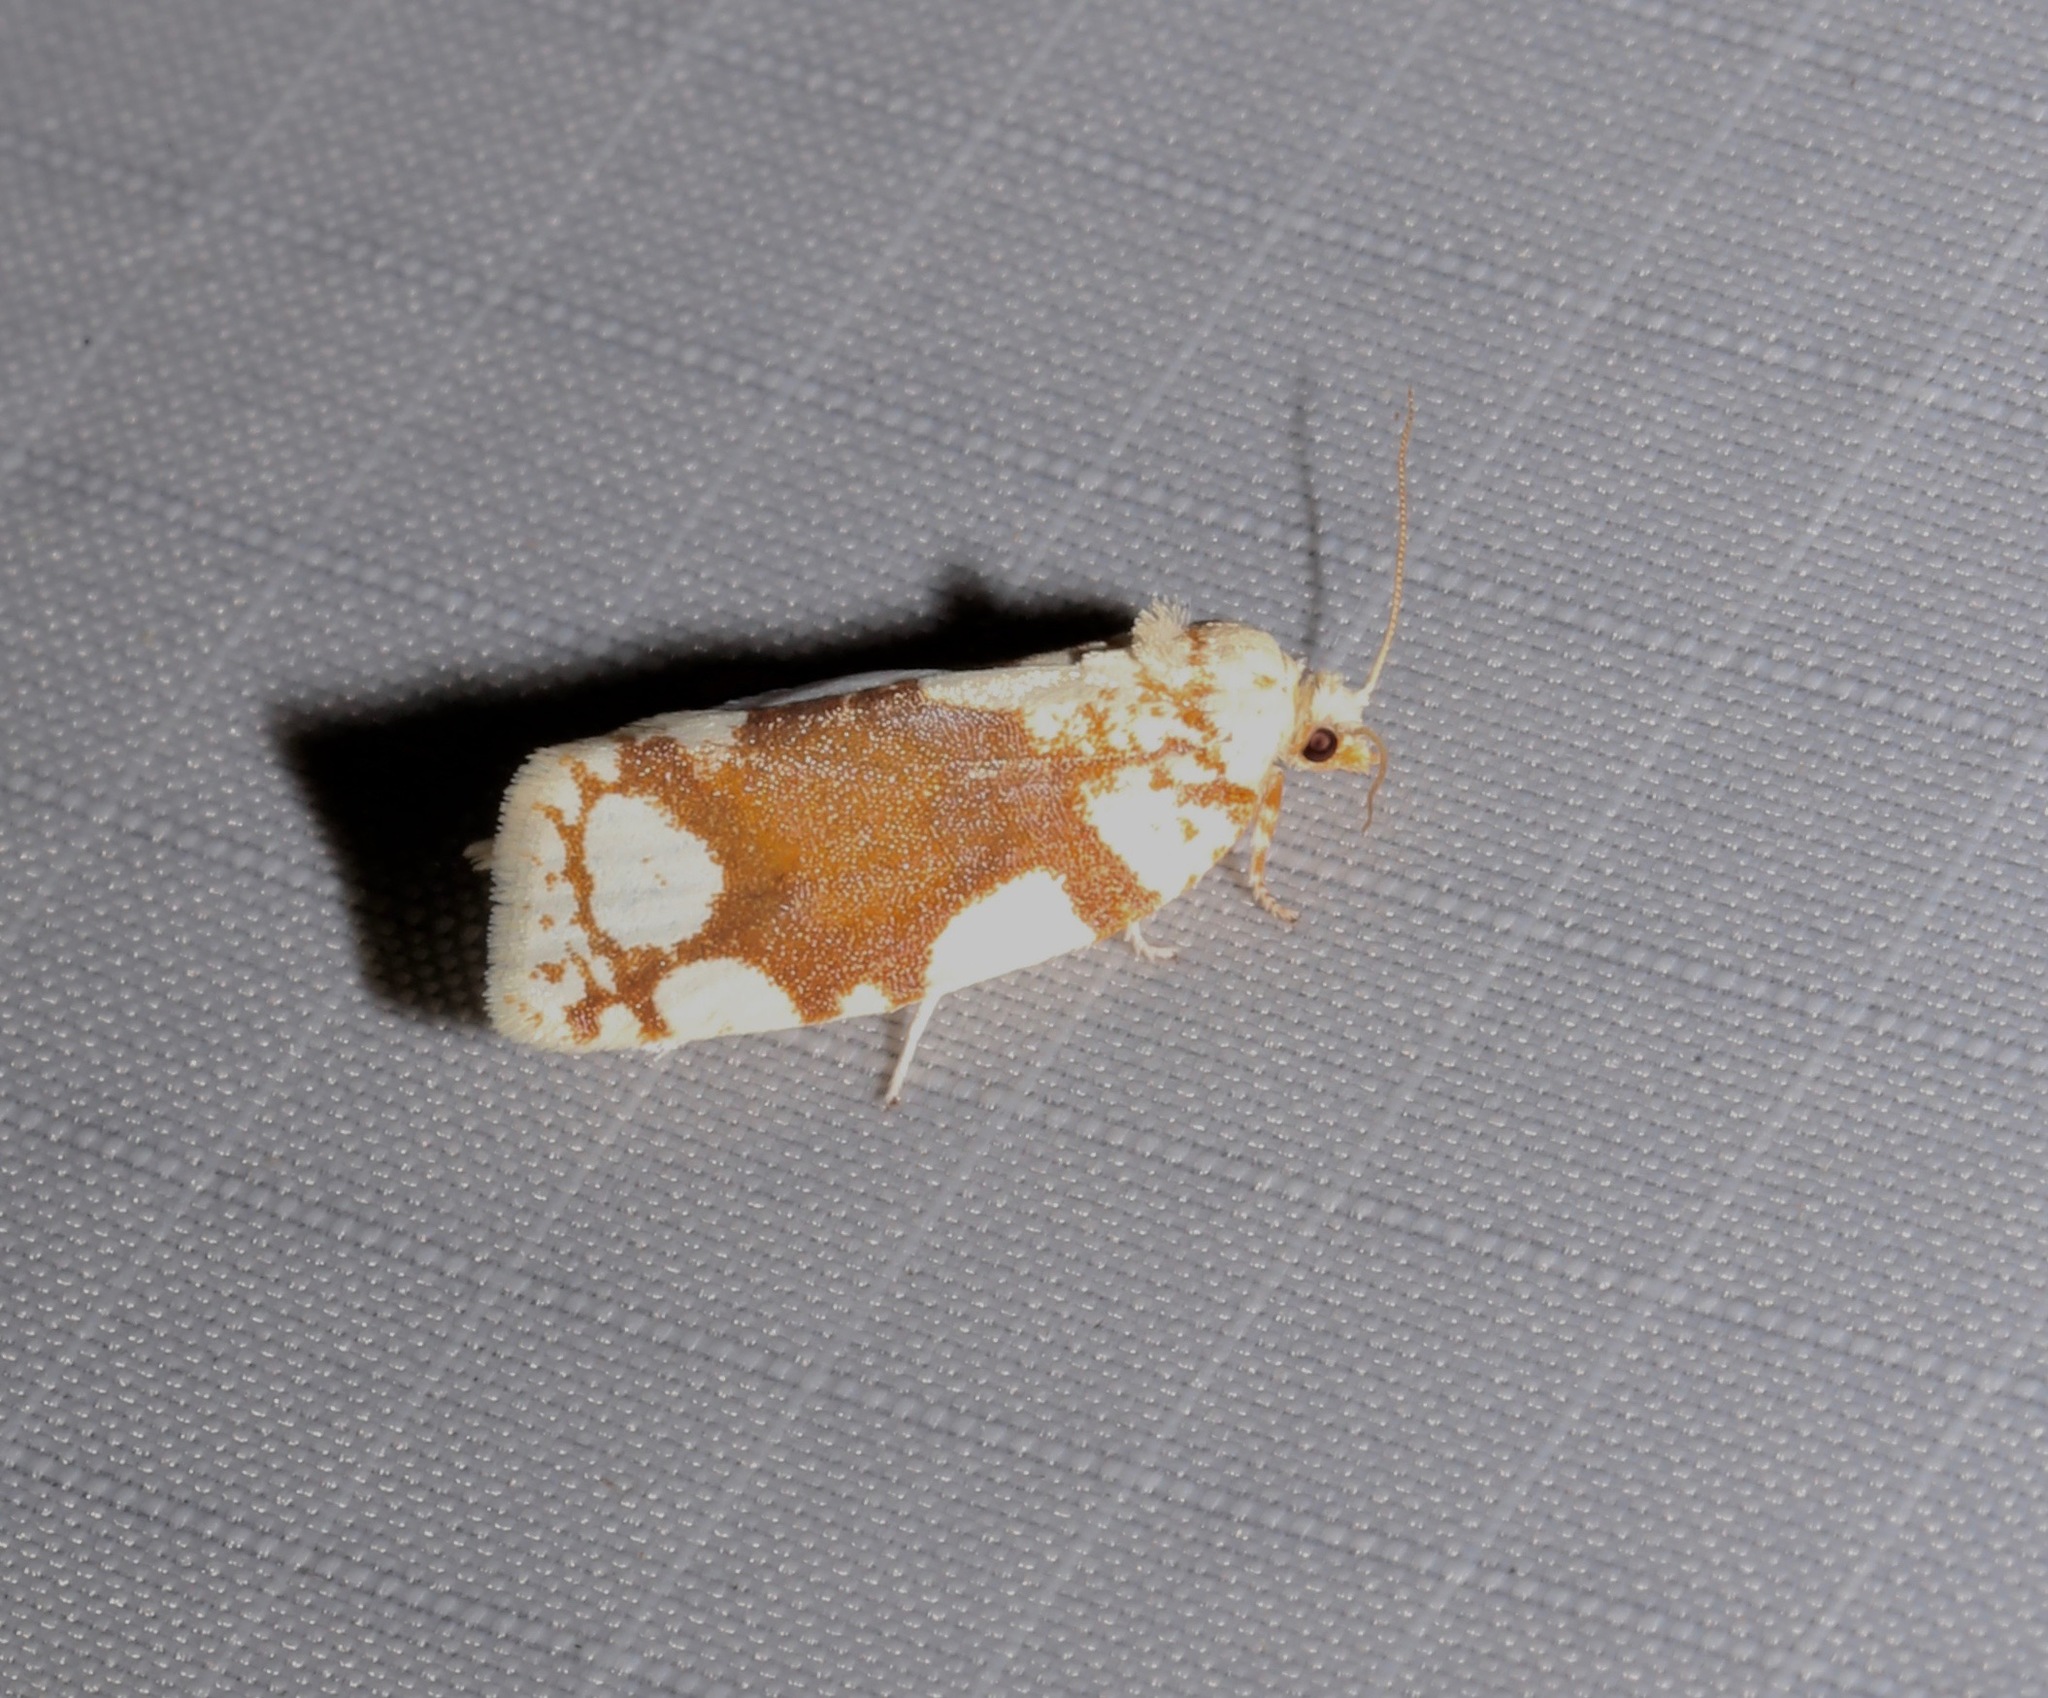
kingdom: Animalia
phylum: Arthropoda
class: Insecta
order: Lepidoptera
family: Tortricidae
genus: Argyrotaenia
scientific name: Argyrotaenia alisellana
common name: White-spotted leafroller moth
